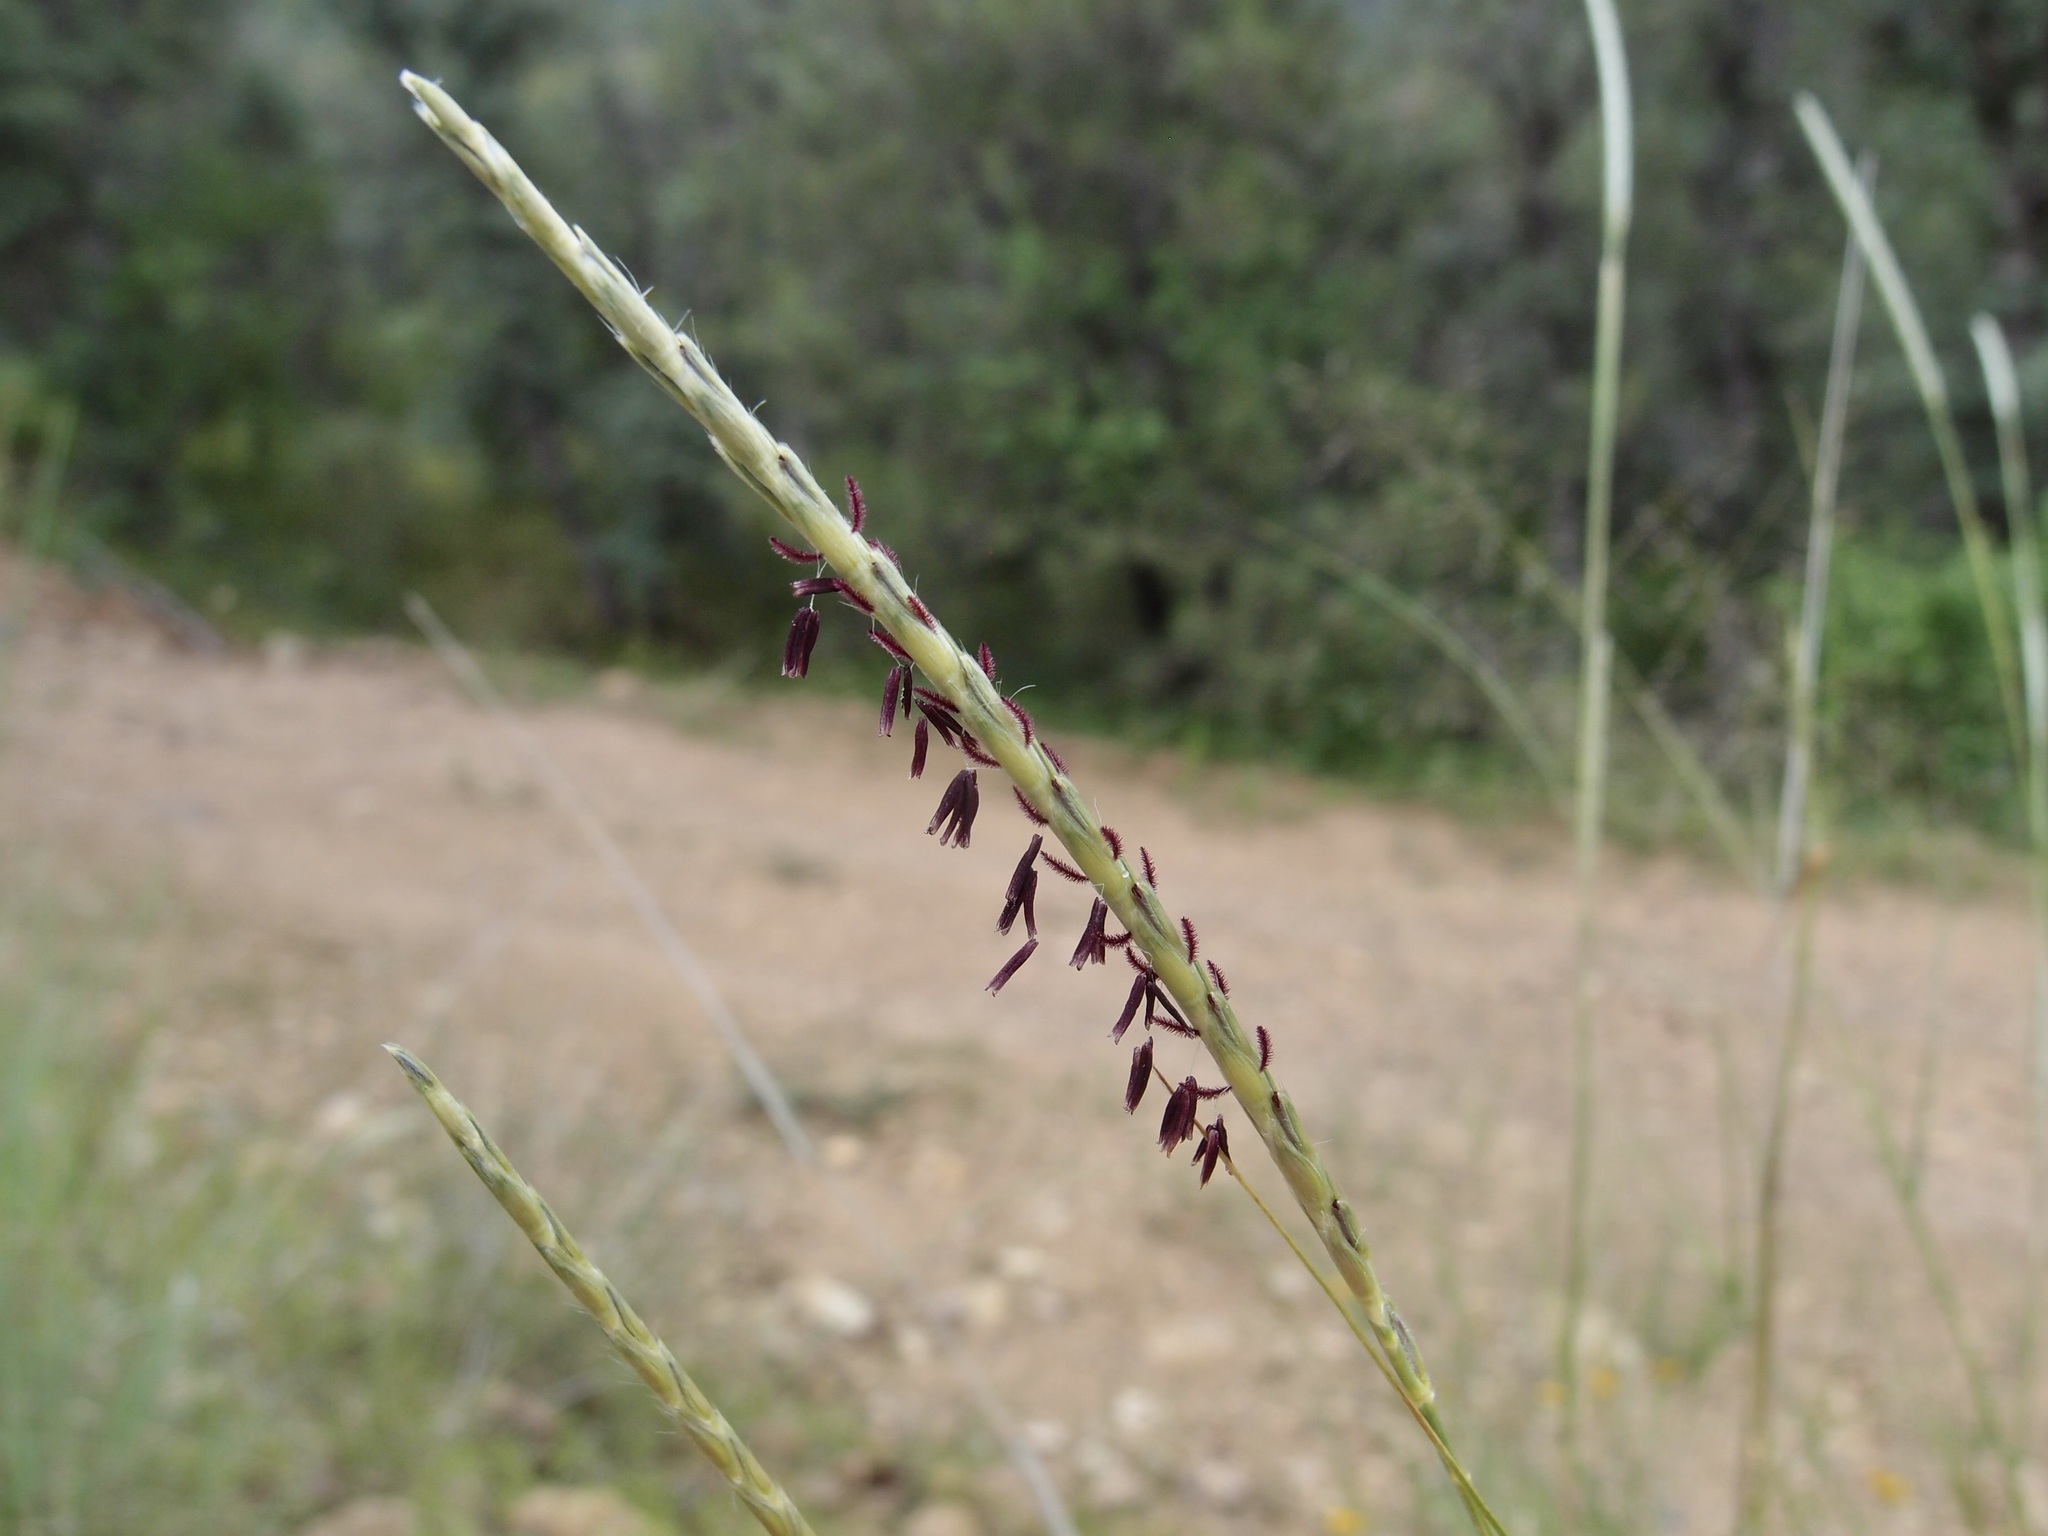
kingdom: Plantae
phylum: Tracheophyta
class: Liliopsida
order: Poales
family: Poaceae
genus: Elionurus
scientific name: Elionurus barbiculmis
